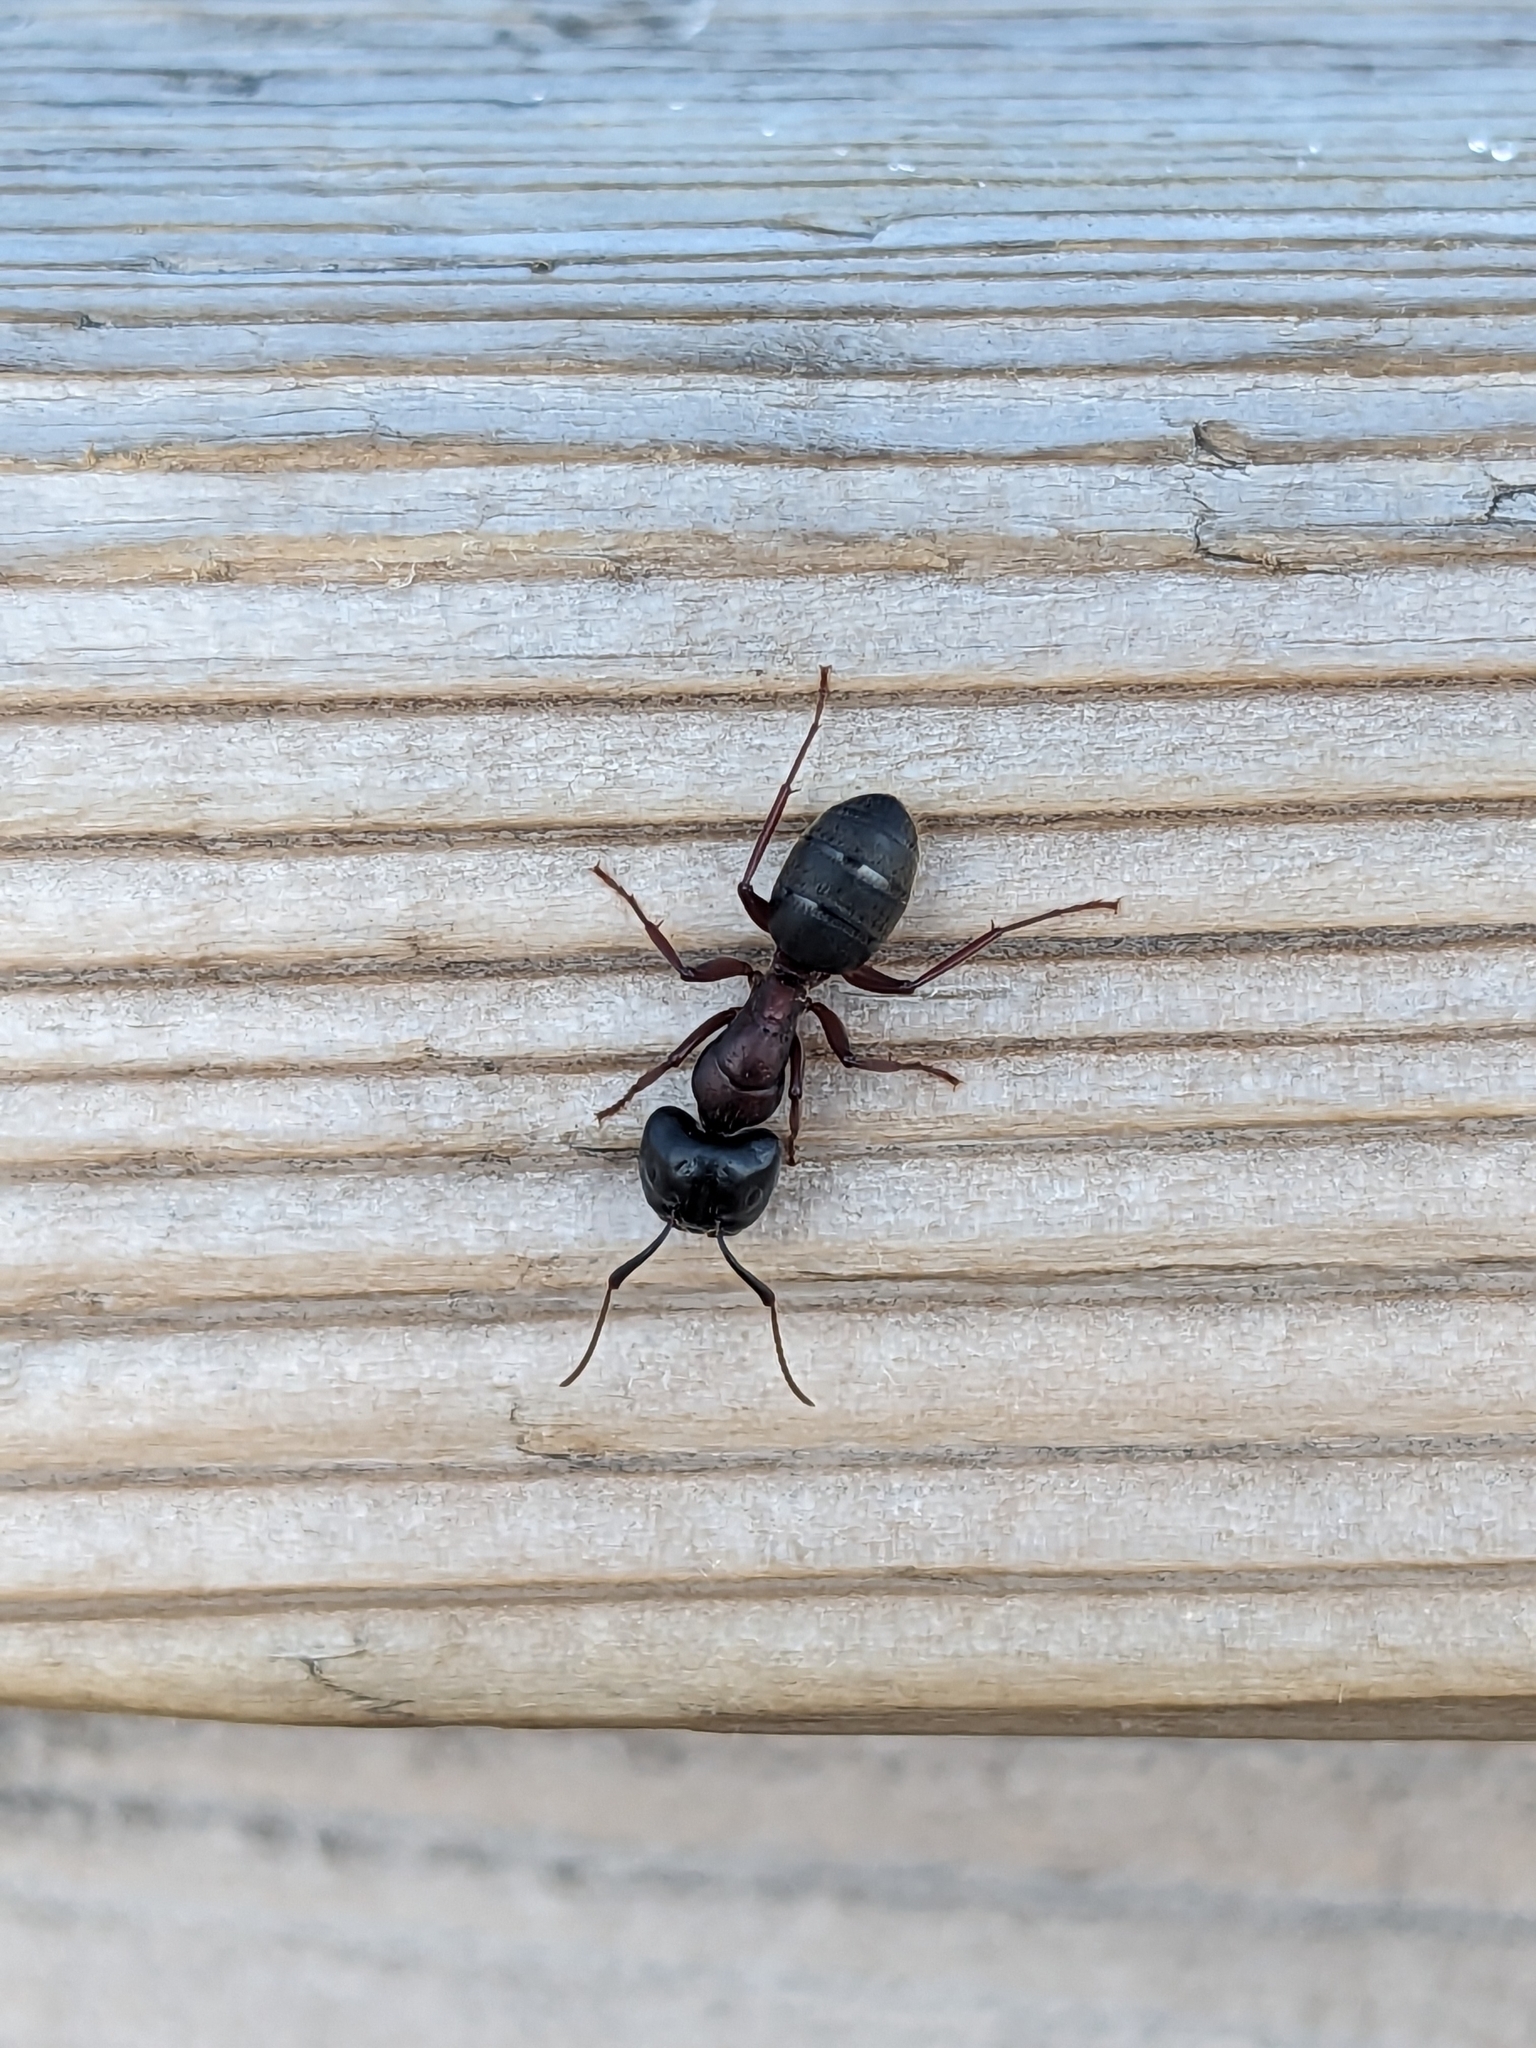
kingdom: Animalia
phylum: Arthropoda
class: Insecta
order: Hymenoptera
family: Formicidae
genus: Camponotus
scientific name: Camponotus novaeboracensis
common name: New york carpenter ant
